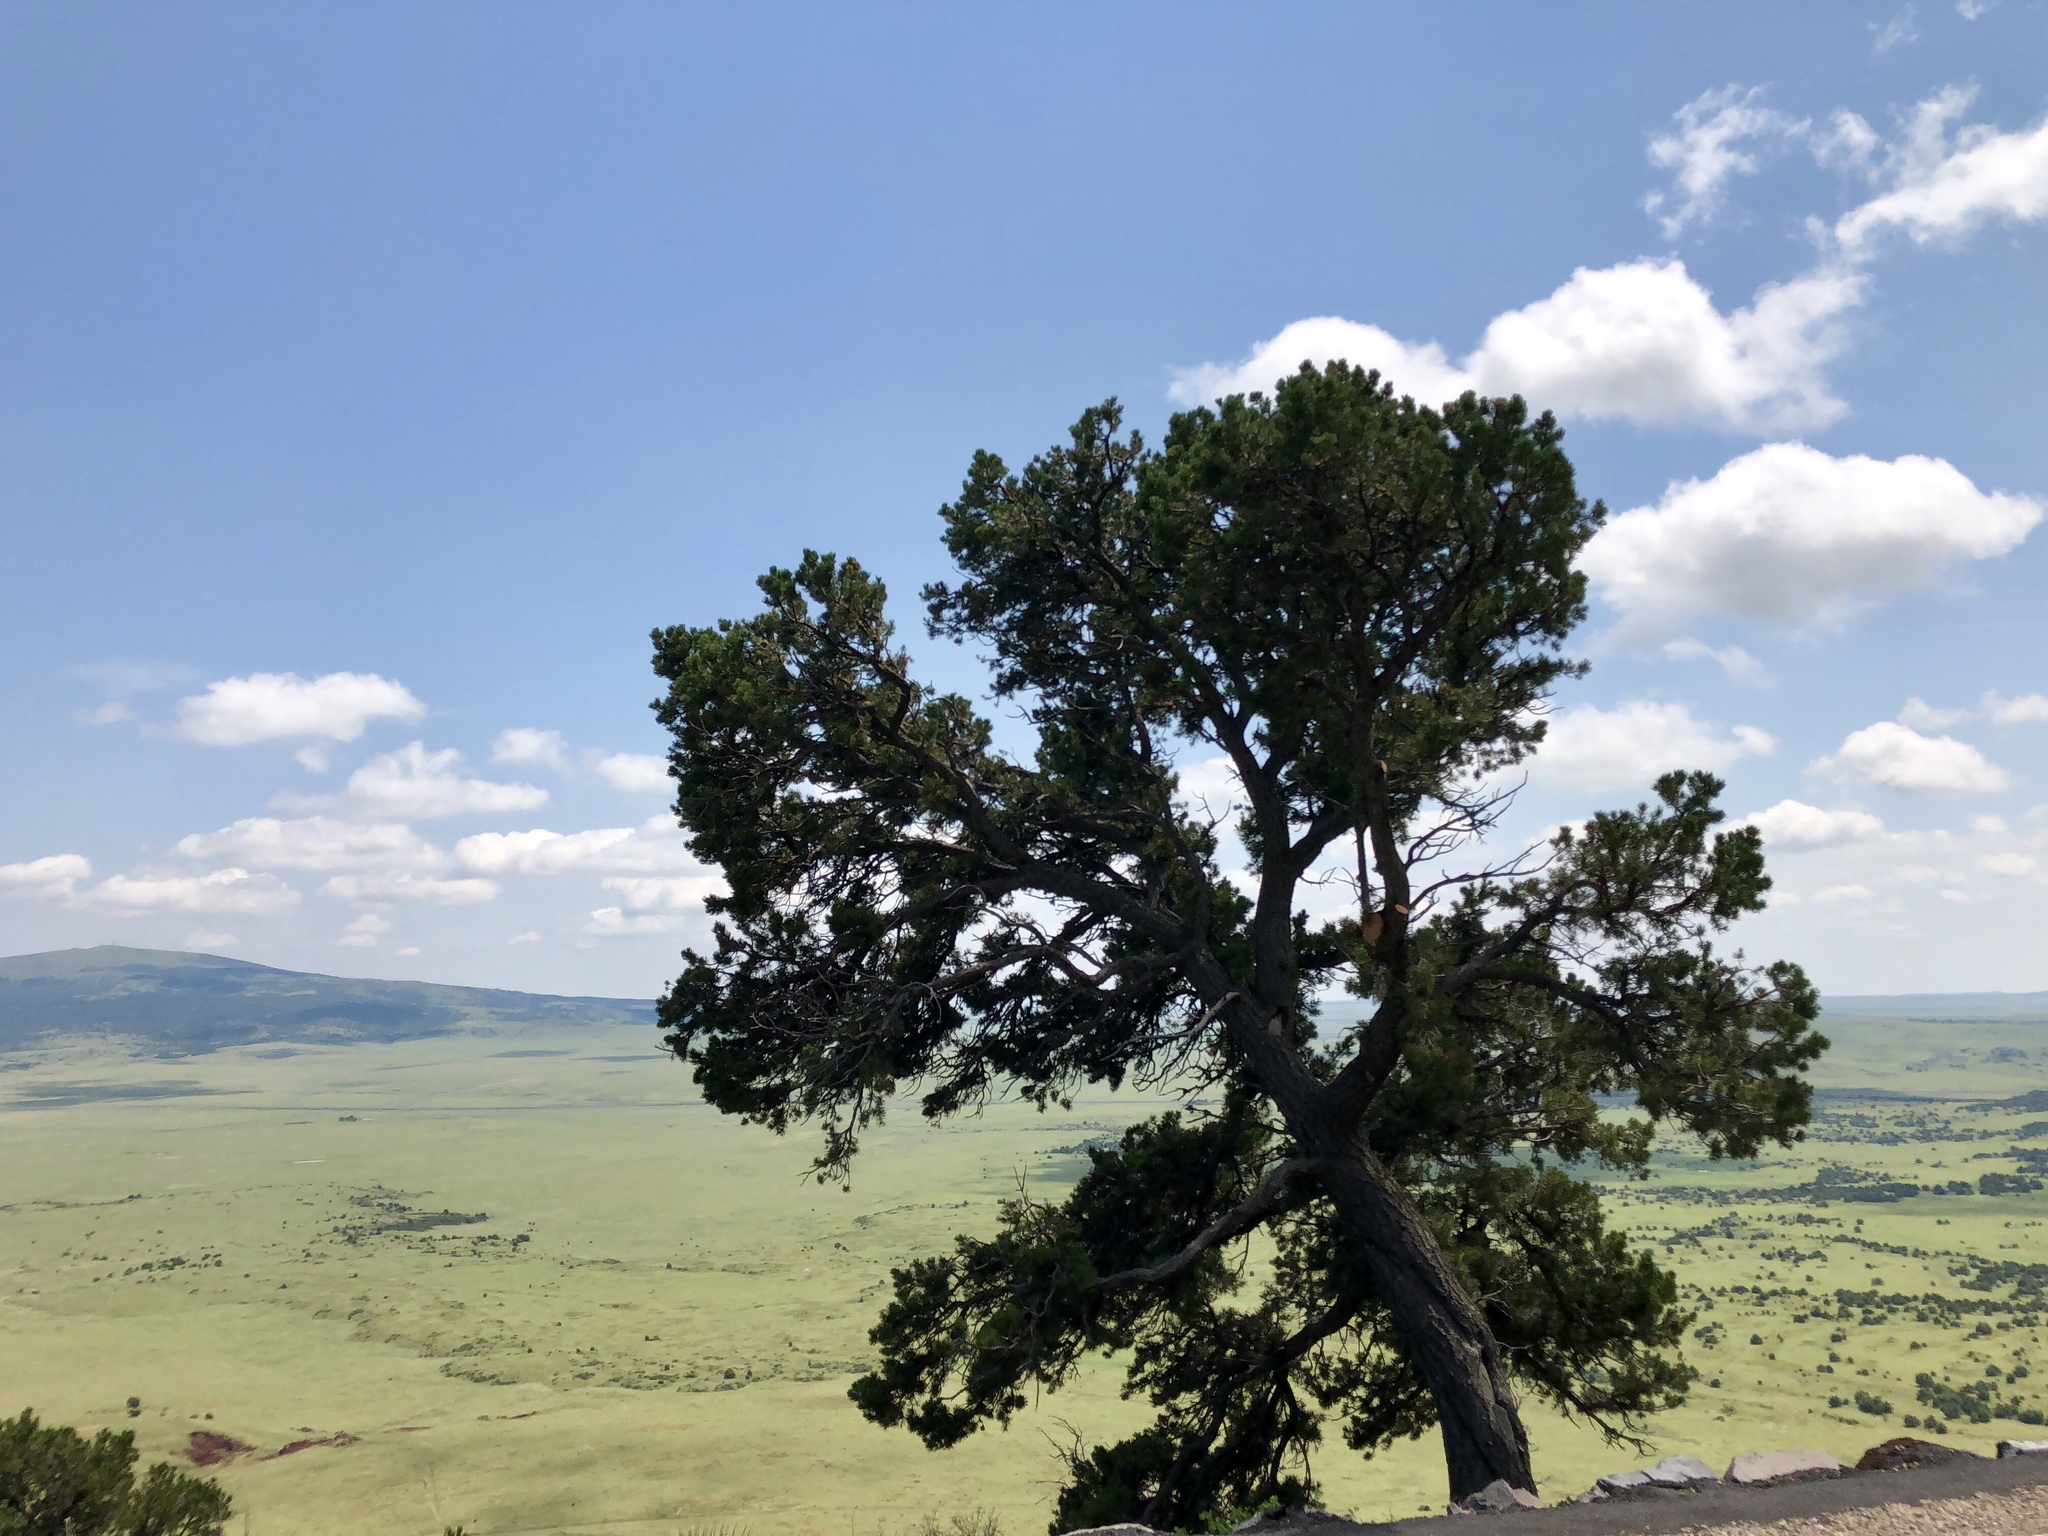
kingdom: Plantae
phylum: Tracheophyta
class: Pinopsida
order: Pinales
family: Pinaceae
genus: Pinus
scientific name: Pinus edulis
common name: Colorado pinyon
